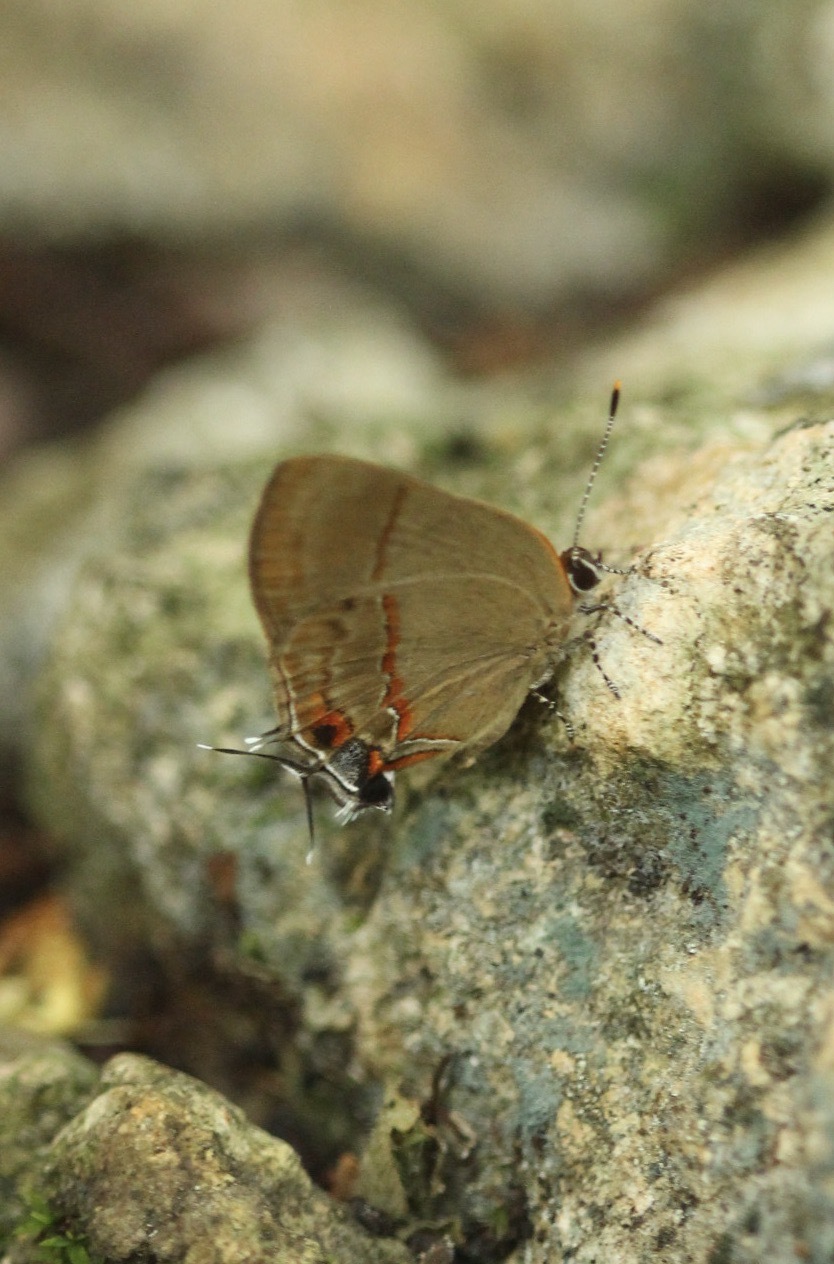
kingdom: Animalia
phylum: Arthropoda
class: Insecta
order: Lepidoptera
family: Lycaenidae
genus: Lamprospilus
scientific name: Lamprospilus collucia
